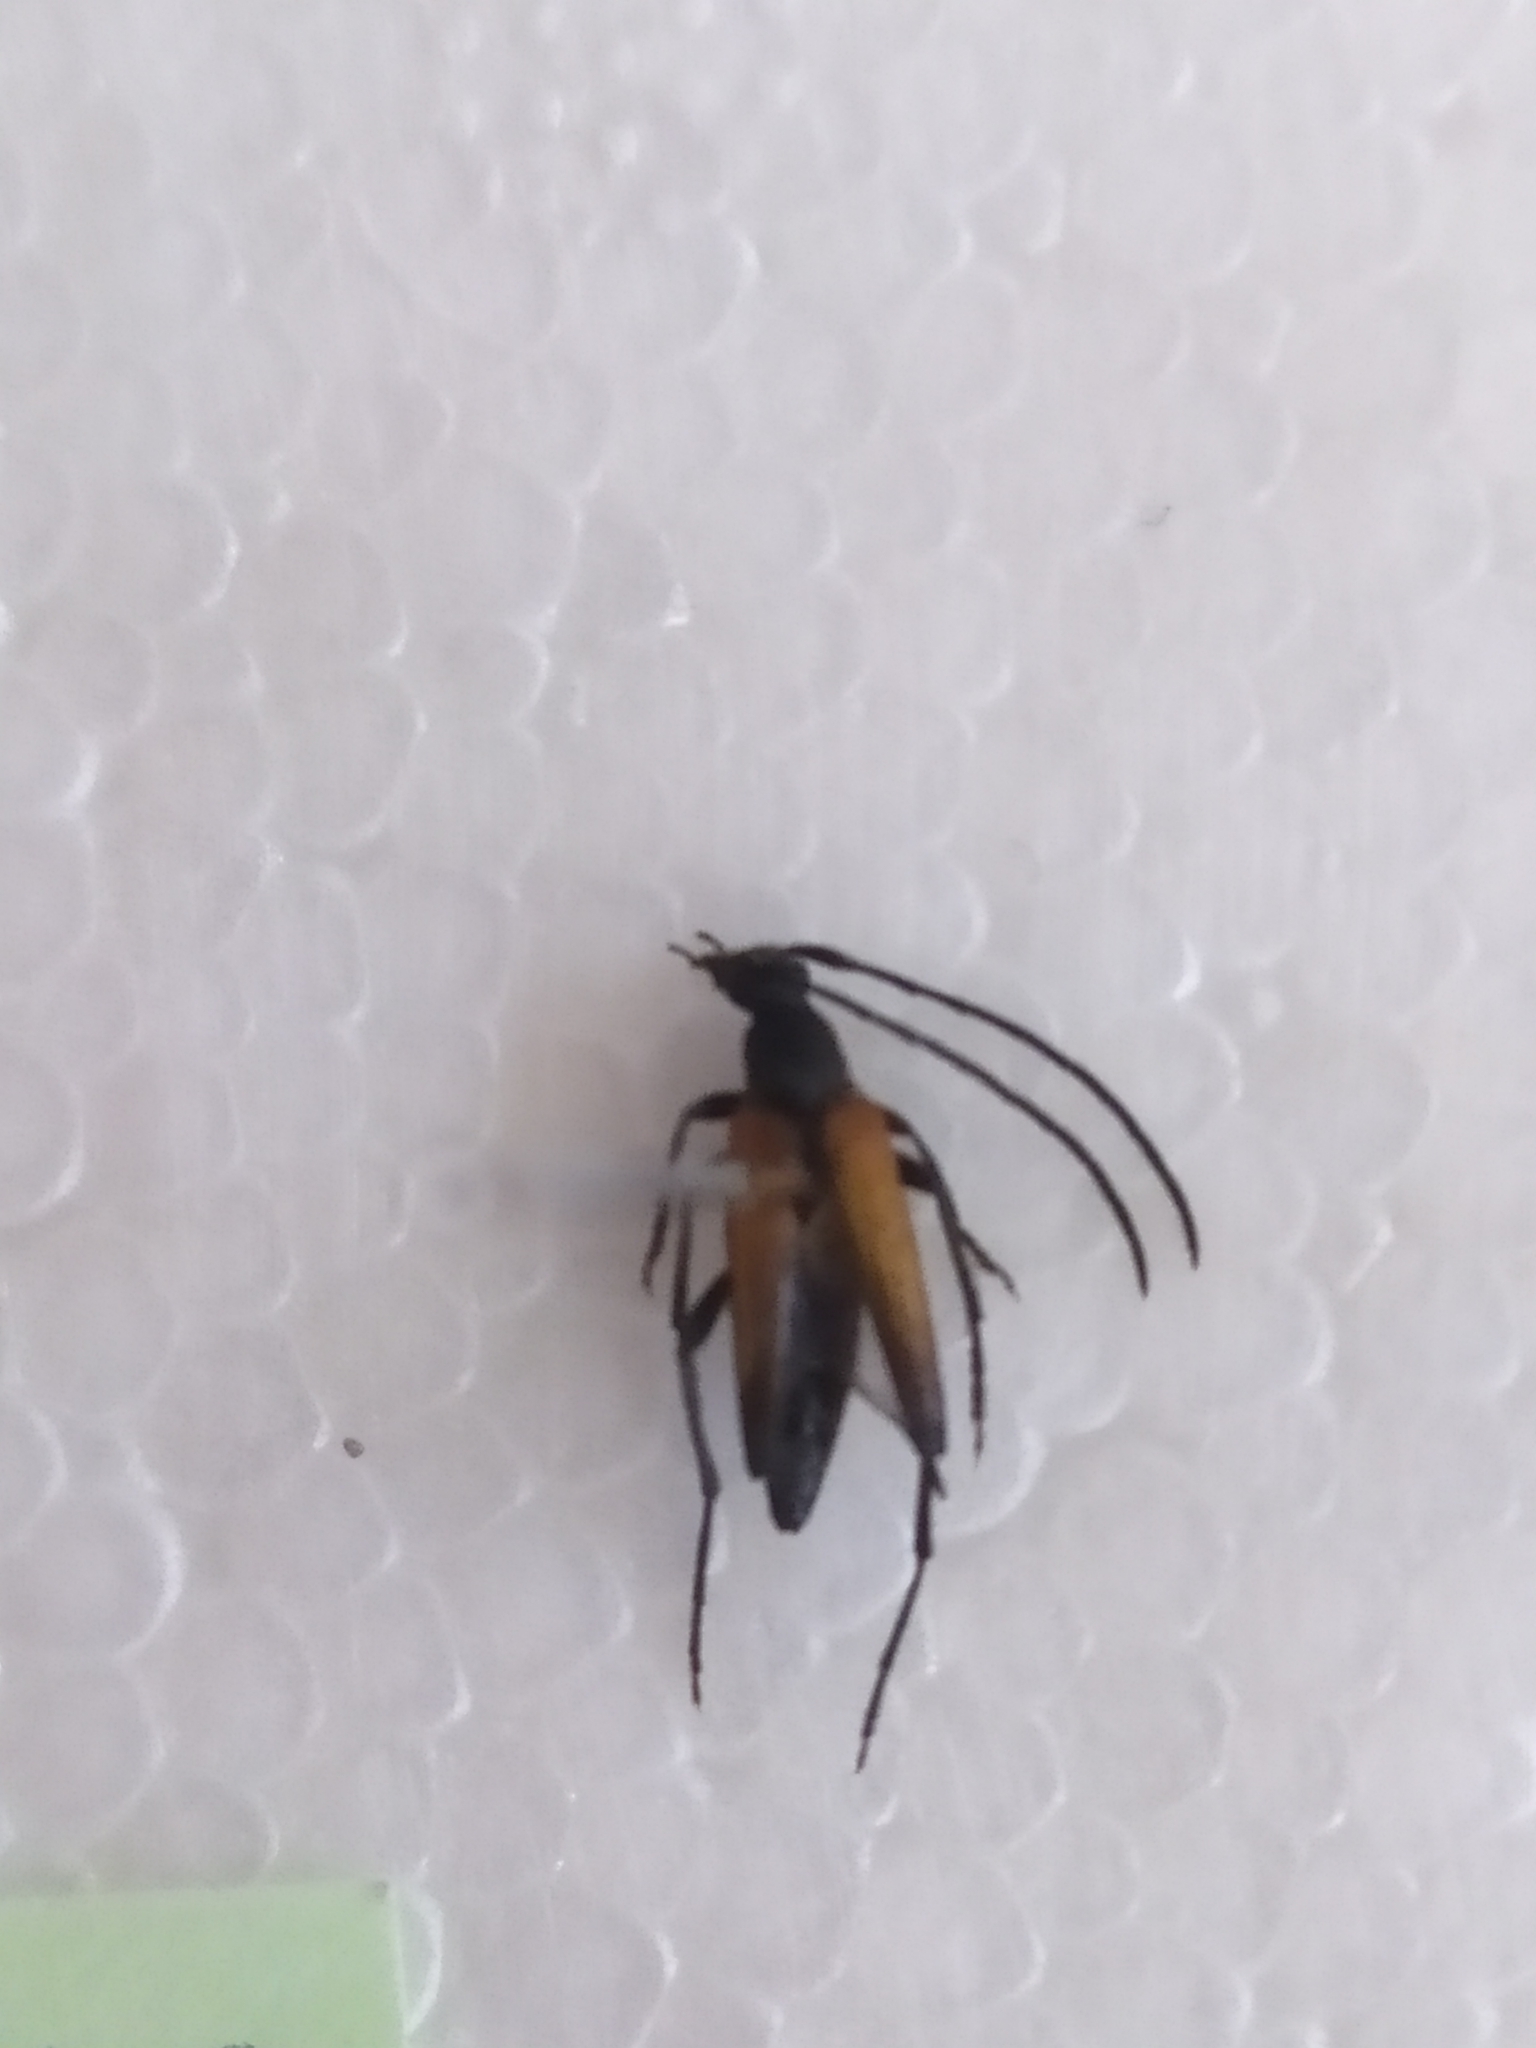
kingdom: Animalia
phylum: Arthropoda
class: Insecta
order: Coleoptera
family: Cerambycidae
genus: Stenurella
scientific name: Stenurella melanura
